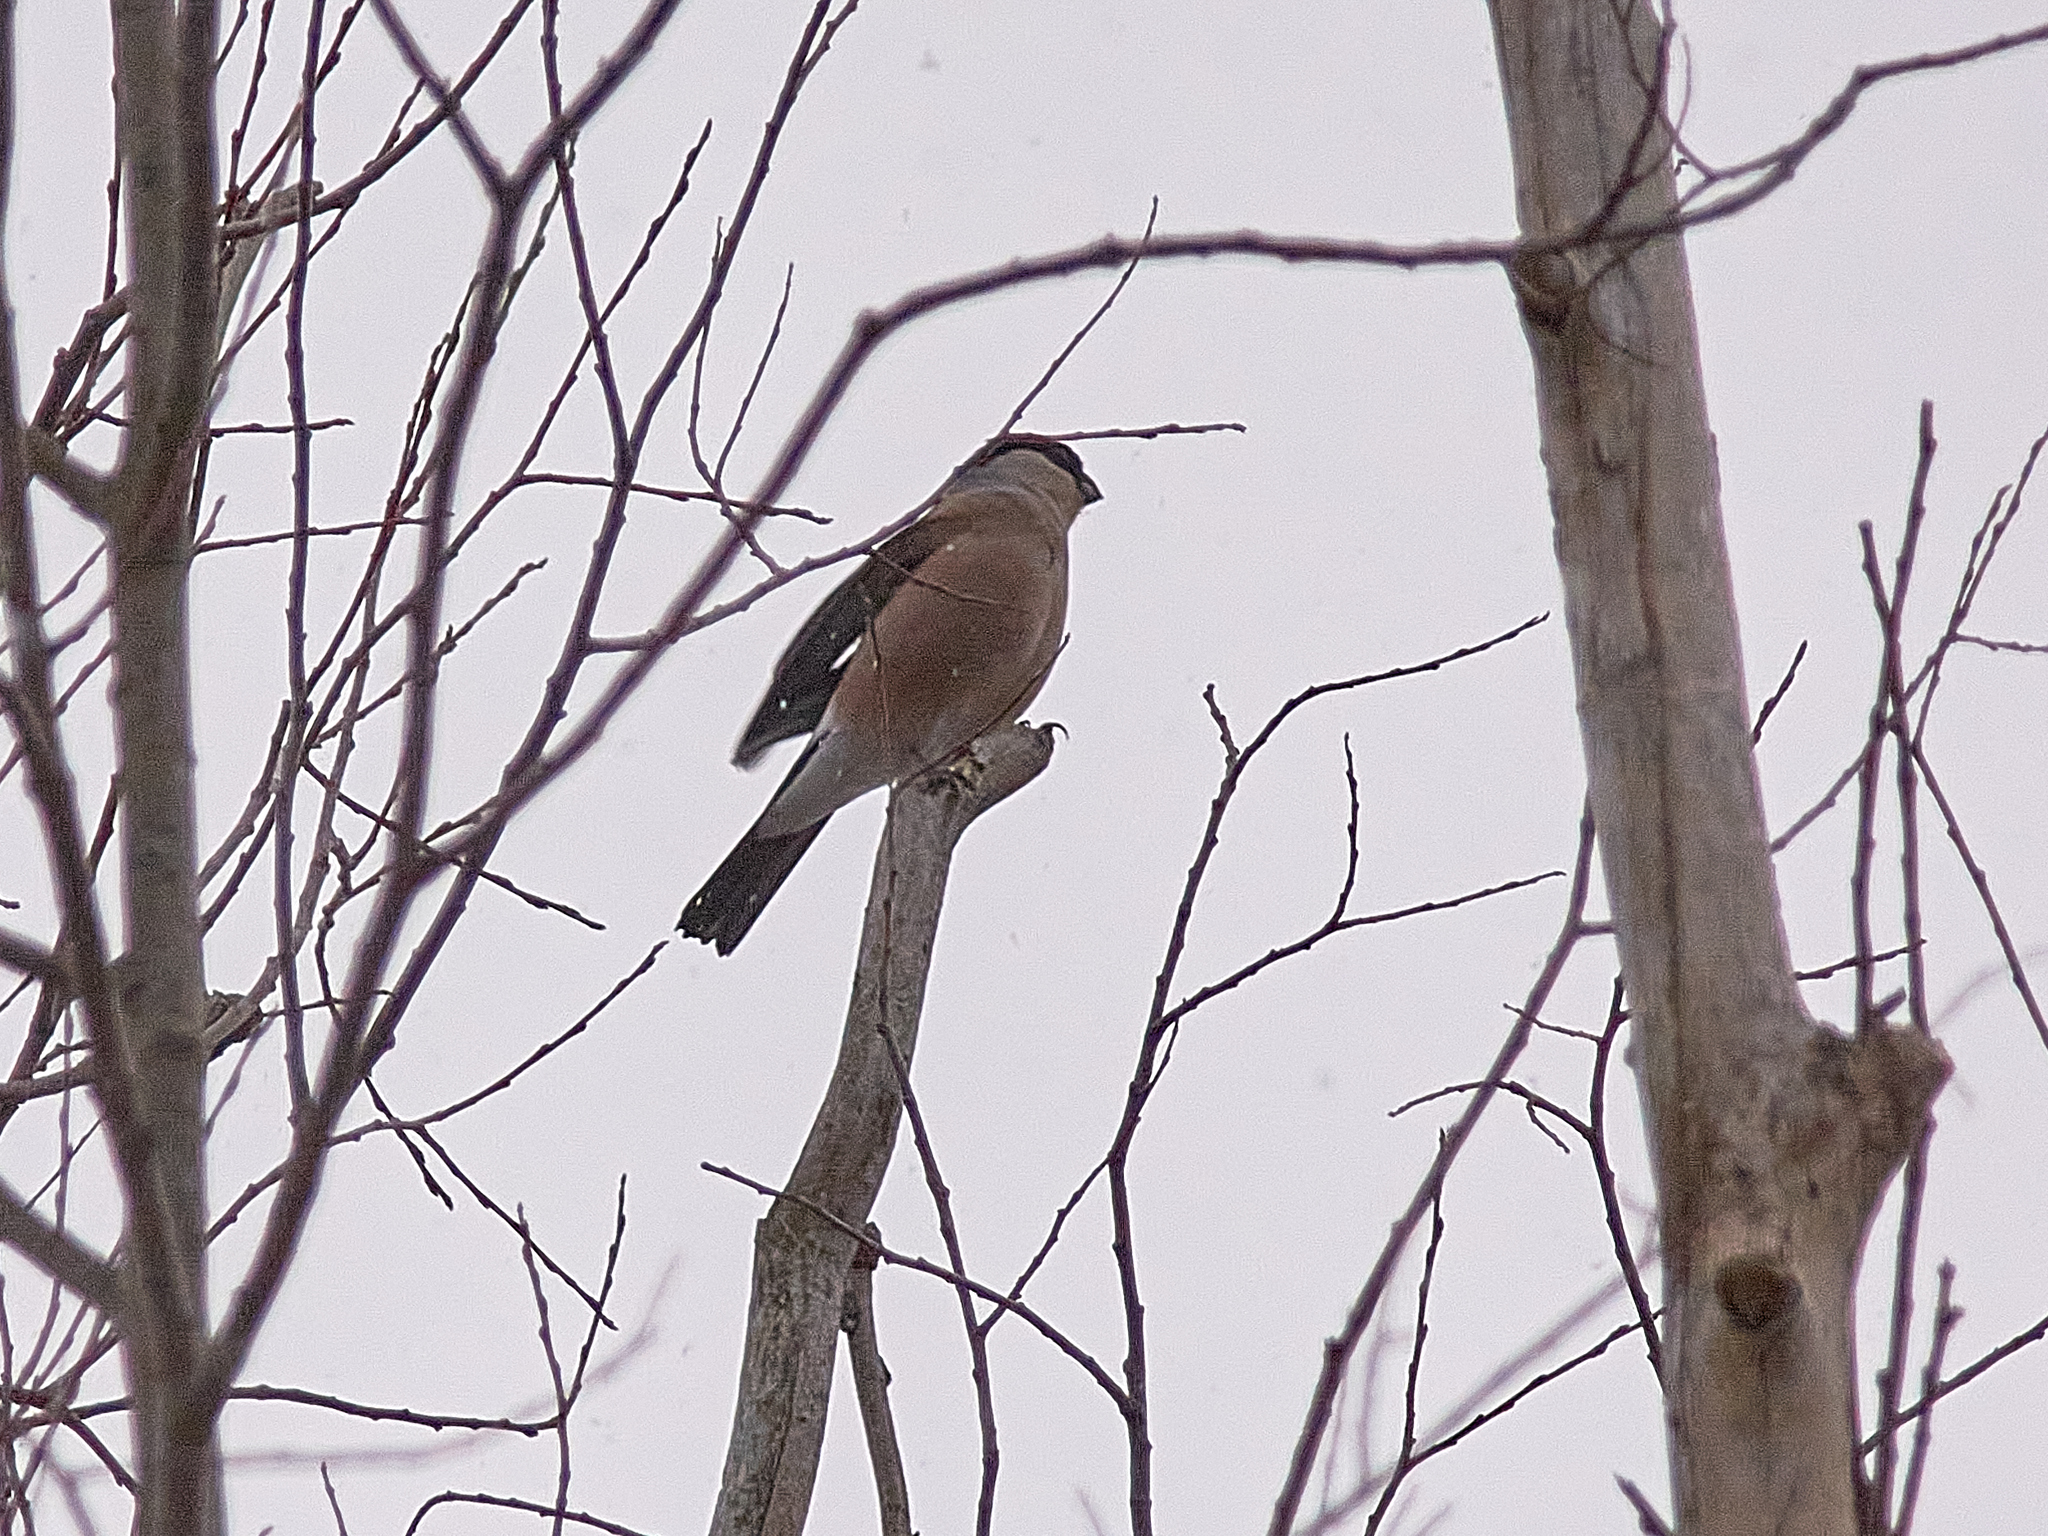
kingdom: Animalia
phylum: Chordata
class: Aves
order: Passeriformes
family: Fringillidae
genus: Pyrrhula
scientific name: Pyrrhula pyrrhula
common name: Eurasian bullfinch
